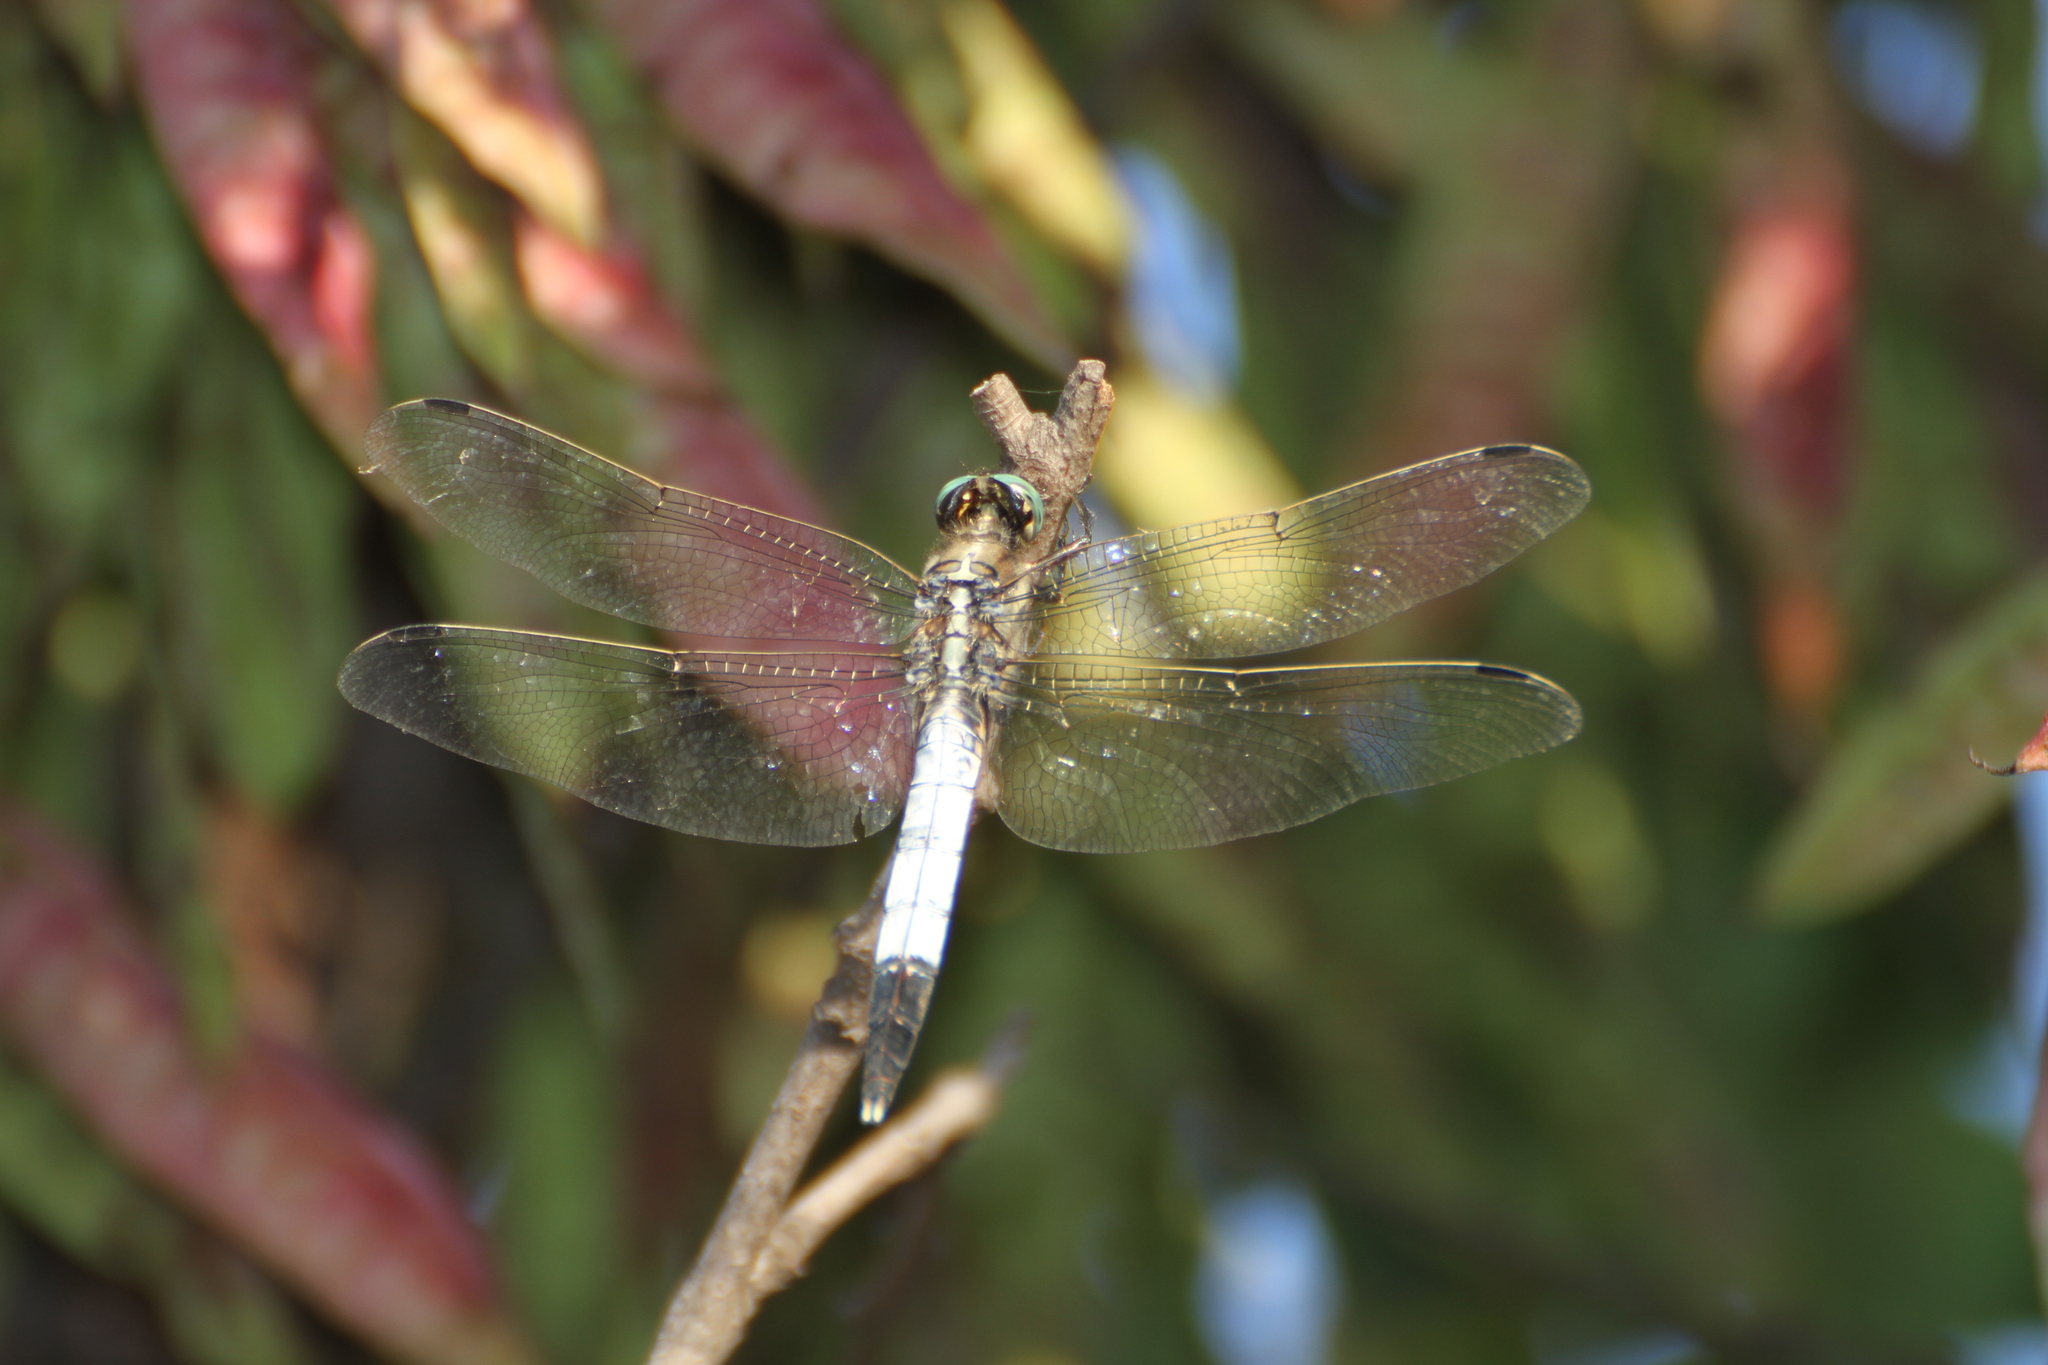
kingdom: Animalia
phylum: Arthropoda
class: Insecta
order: Odonata
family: Libellulidae
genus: Orthetrum
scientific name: Orthetrum albistylum
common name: White-tailed skimmer
